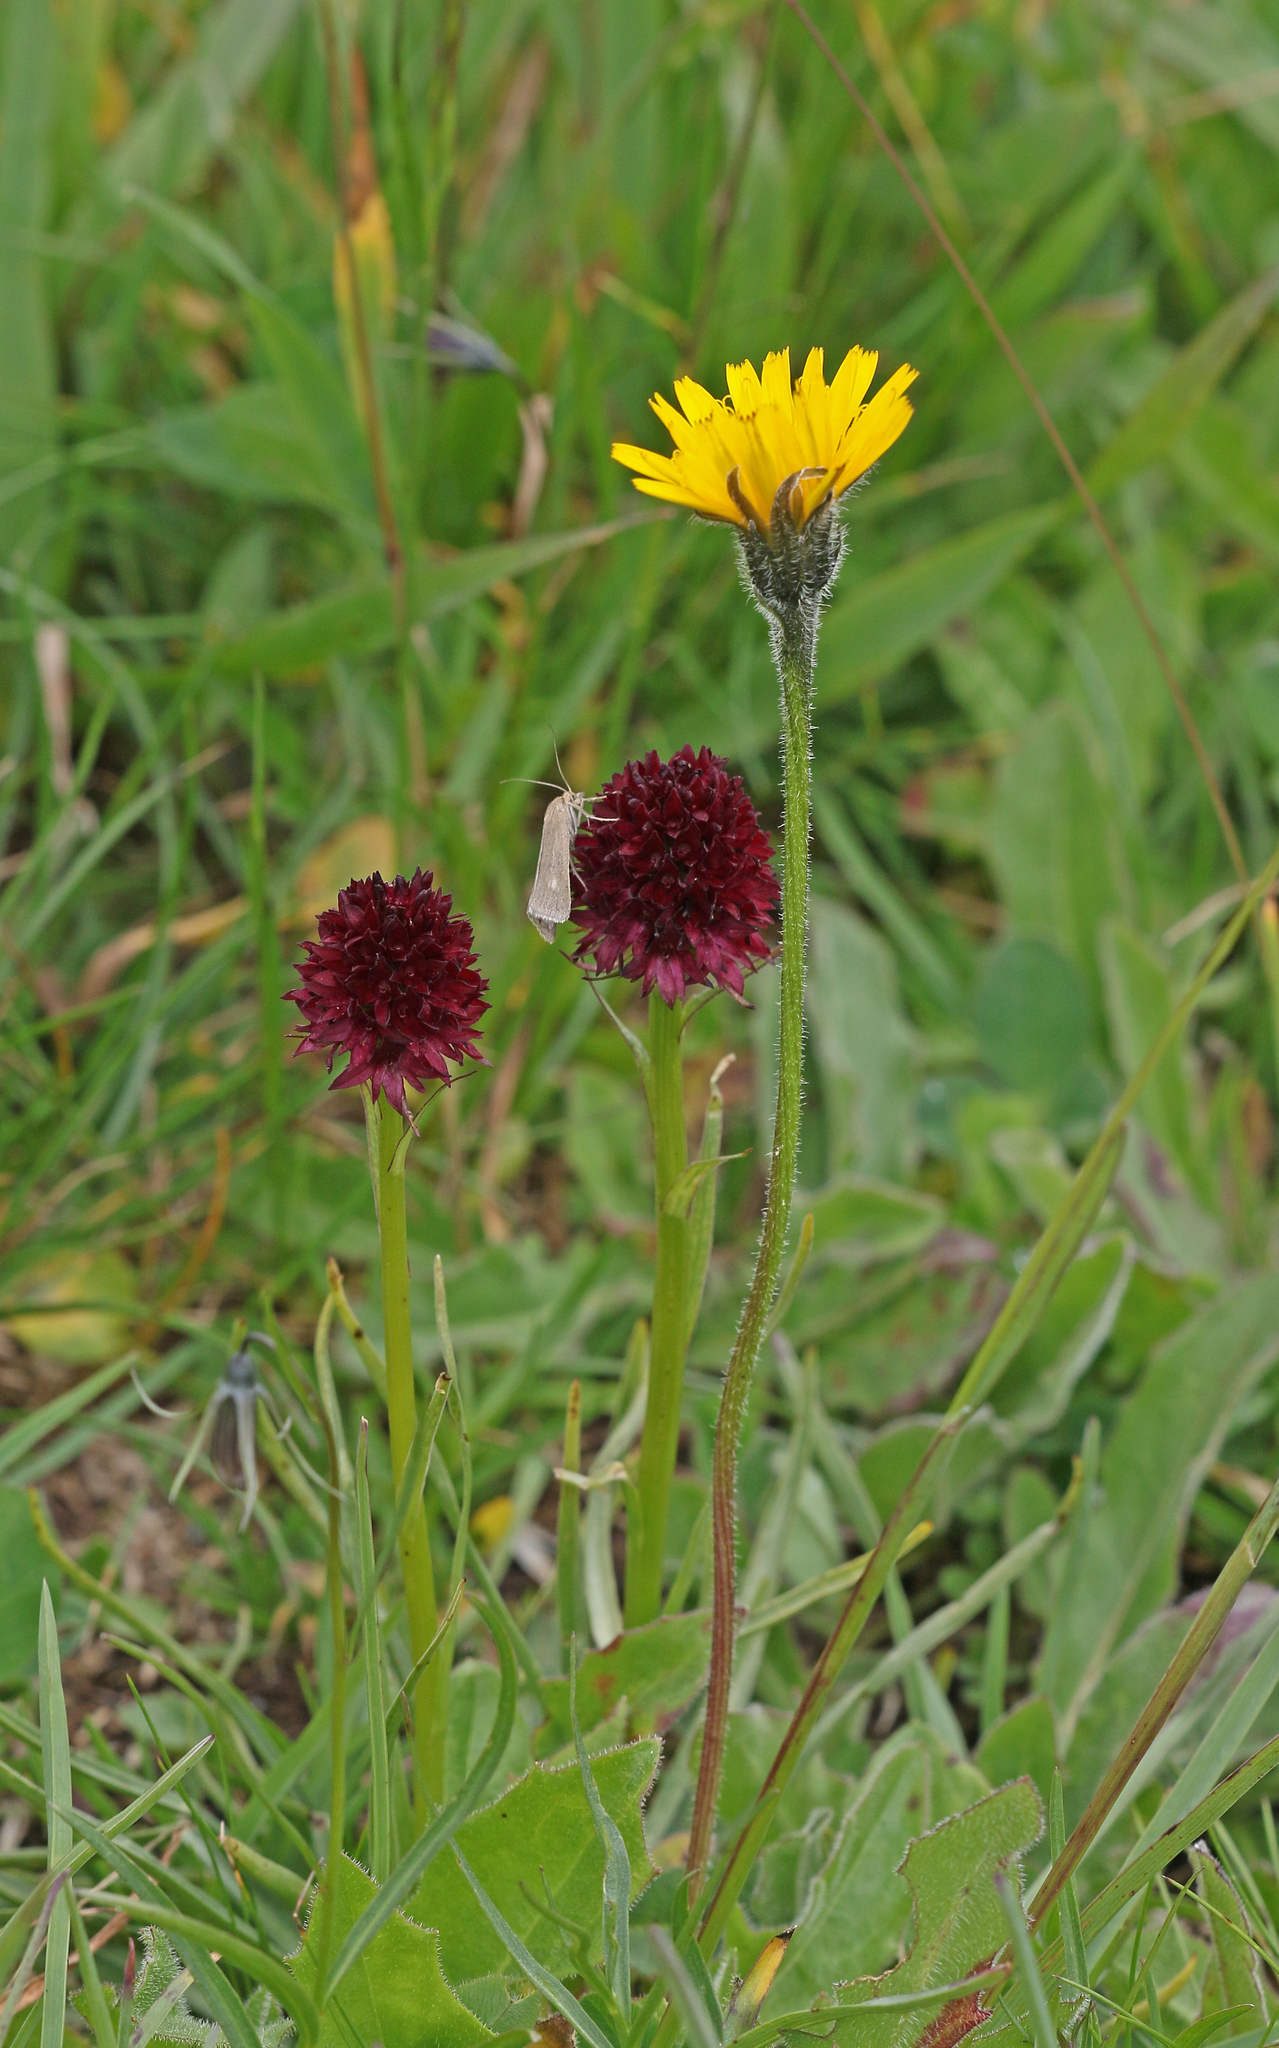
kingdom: Plantae
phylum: Tracheophyta
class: Liliopsida
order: Asparagales
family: Orchidaceae
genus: Gymnadenia
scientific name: Gymnadenia austriaca
